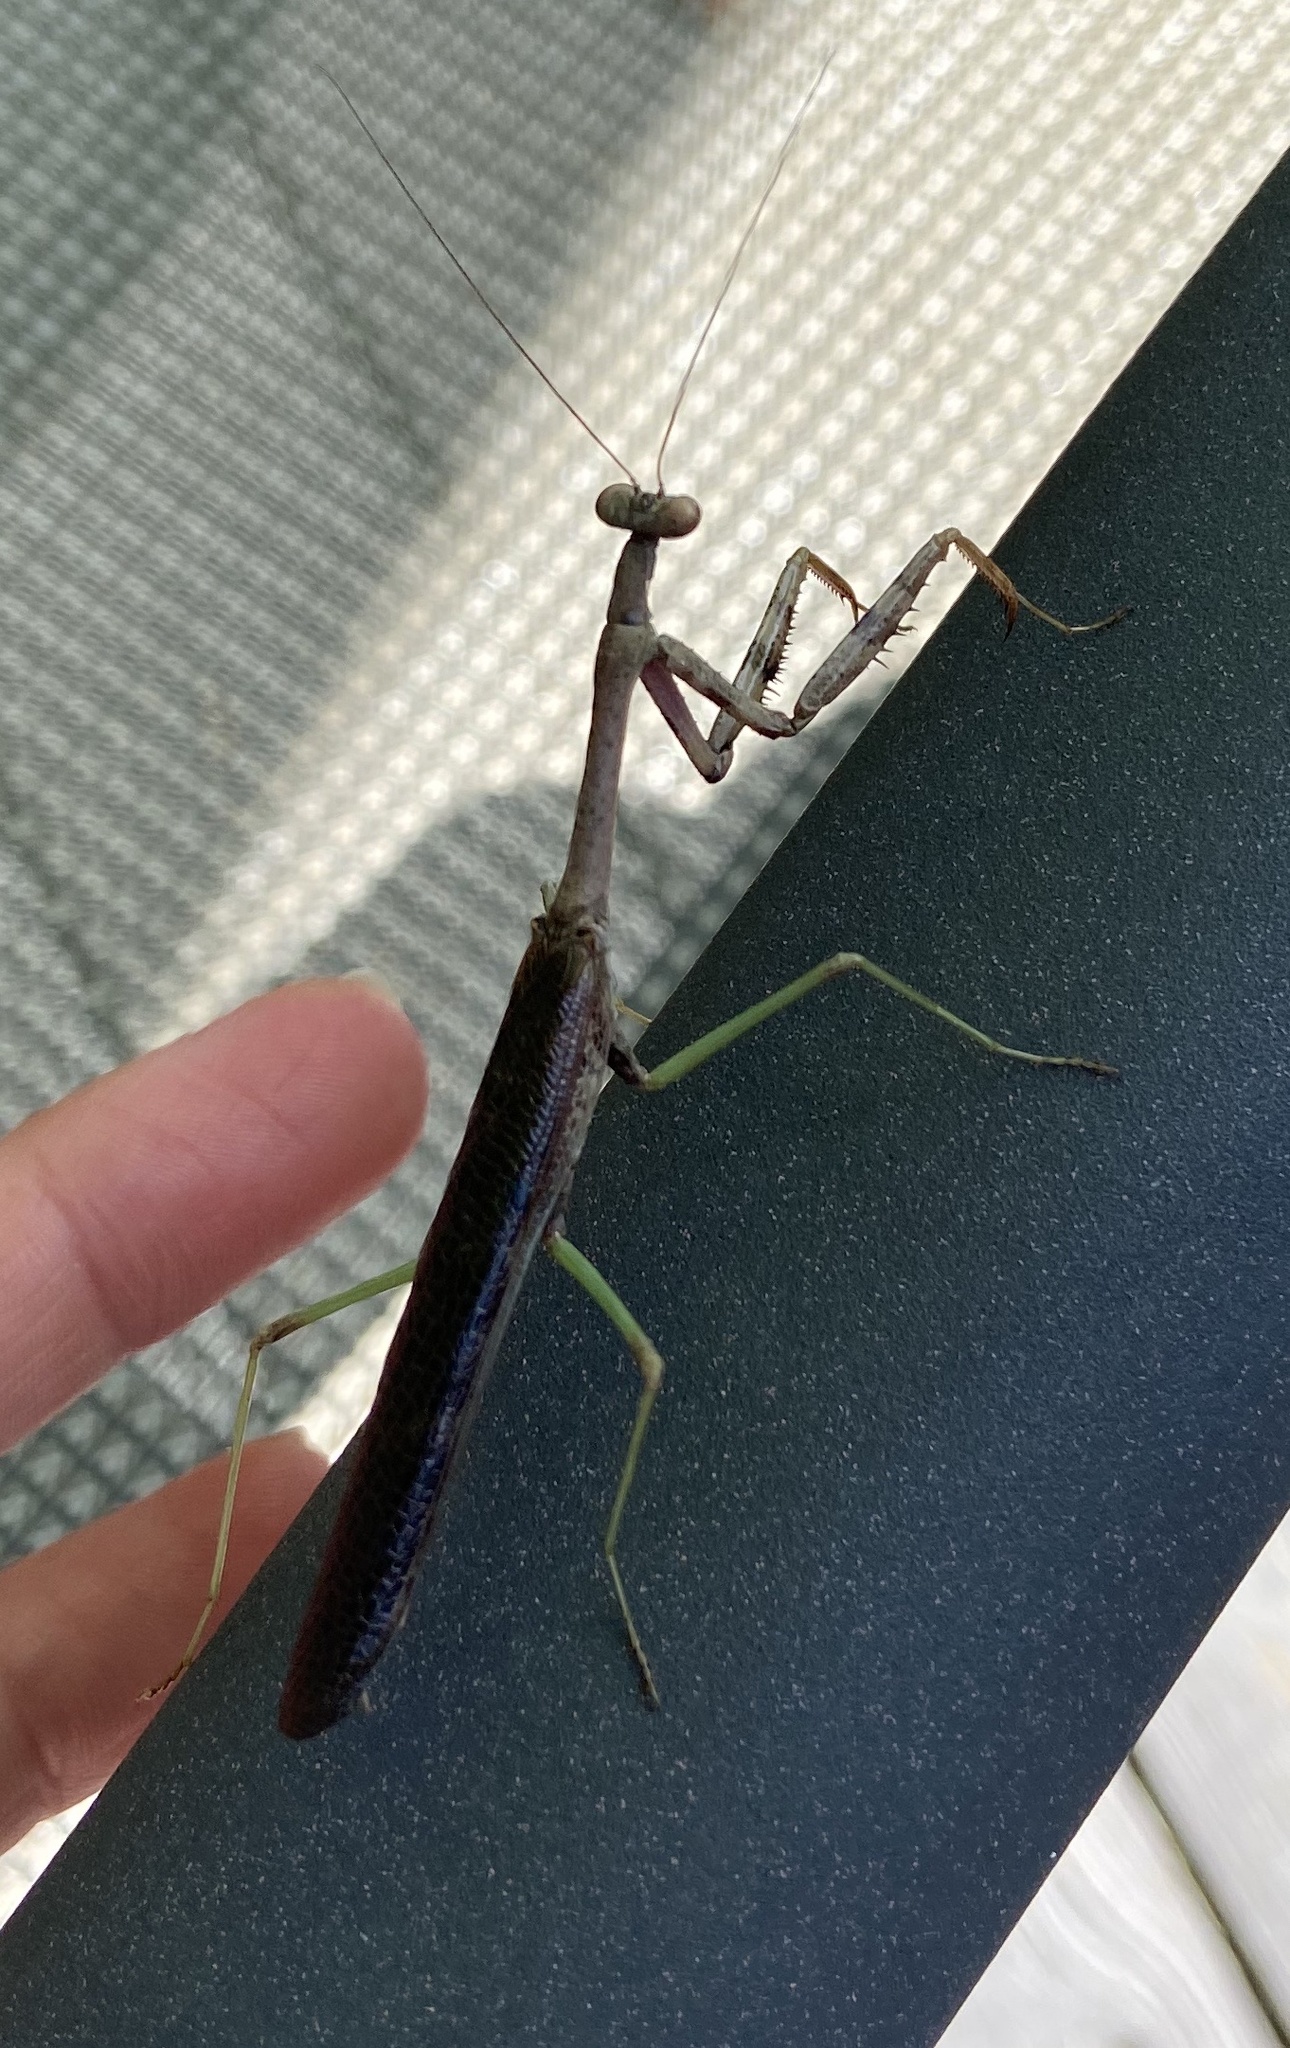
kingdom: Animalia
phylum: Arthropoda
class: Insecta
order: Mantodea
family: Mantidae
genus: Stagmomantis
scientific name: Stagmomantis carolina
